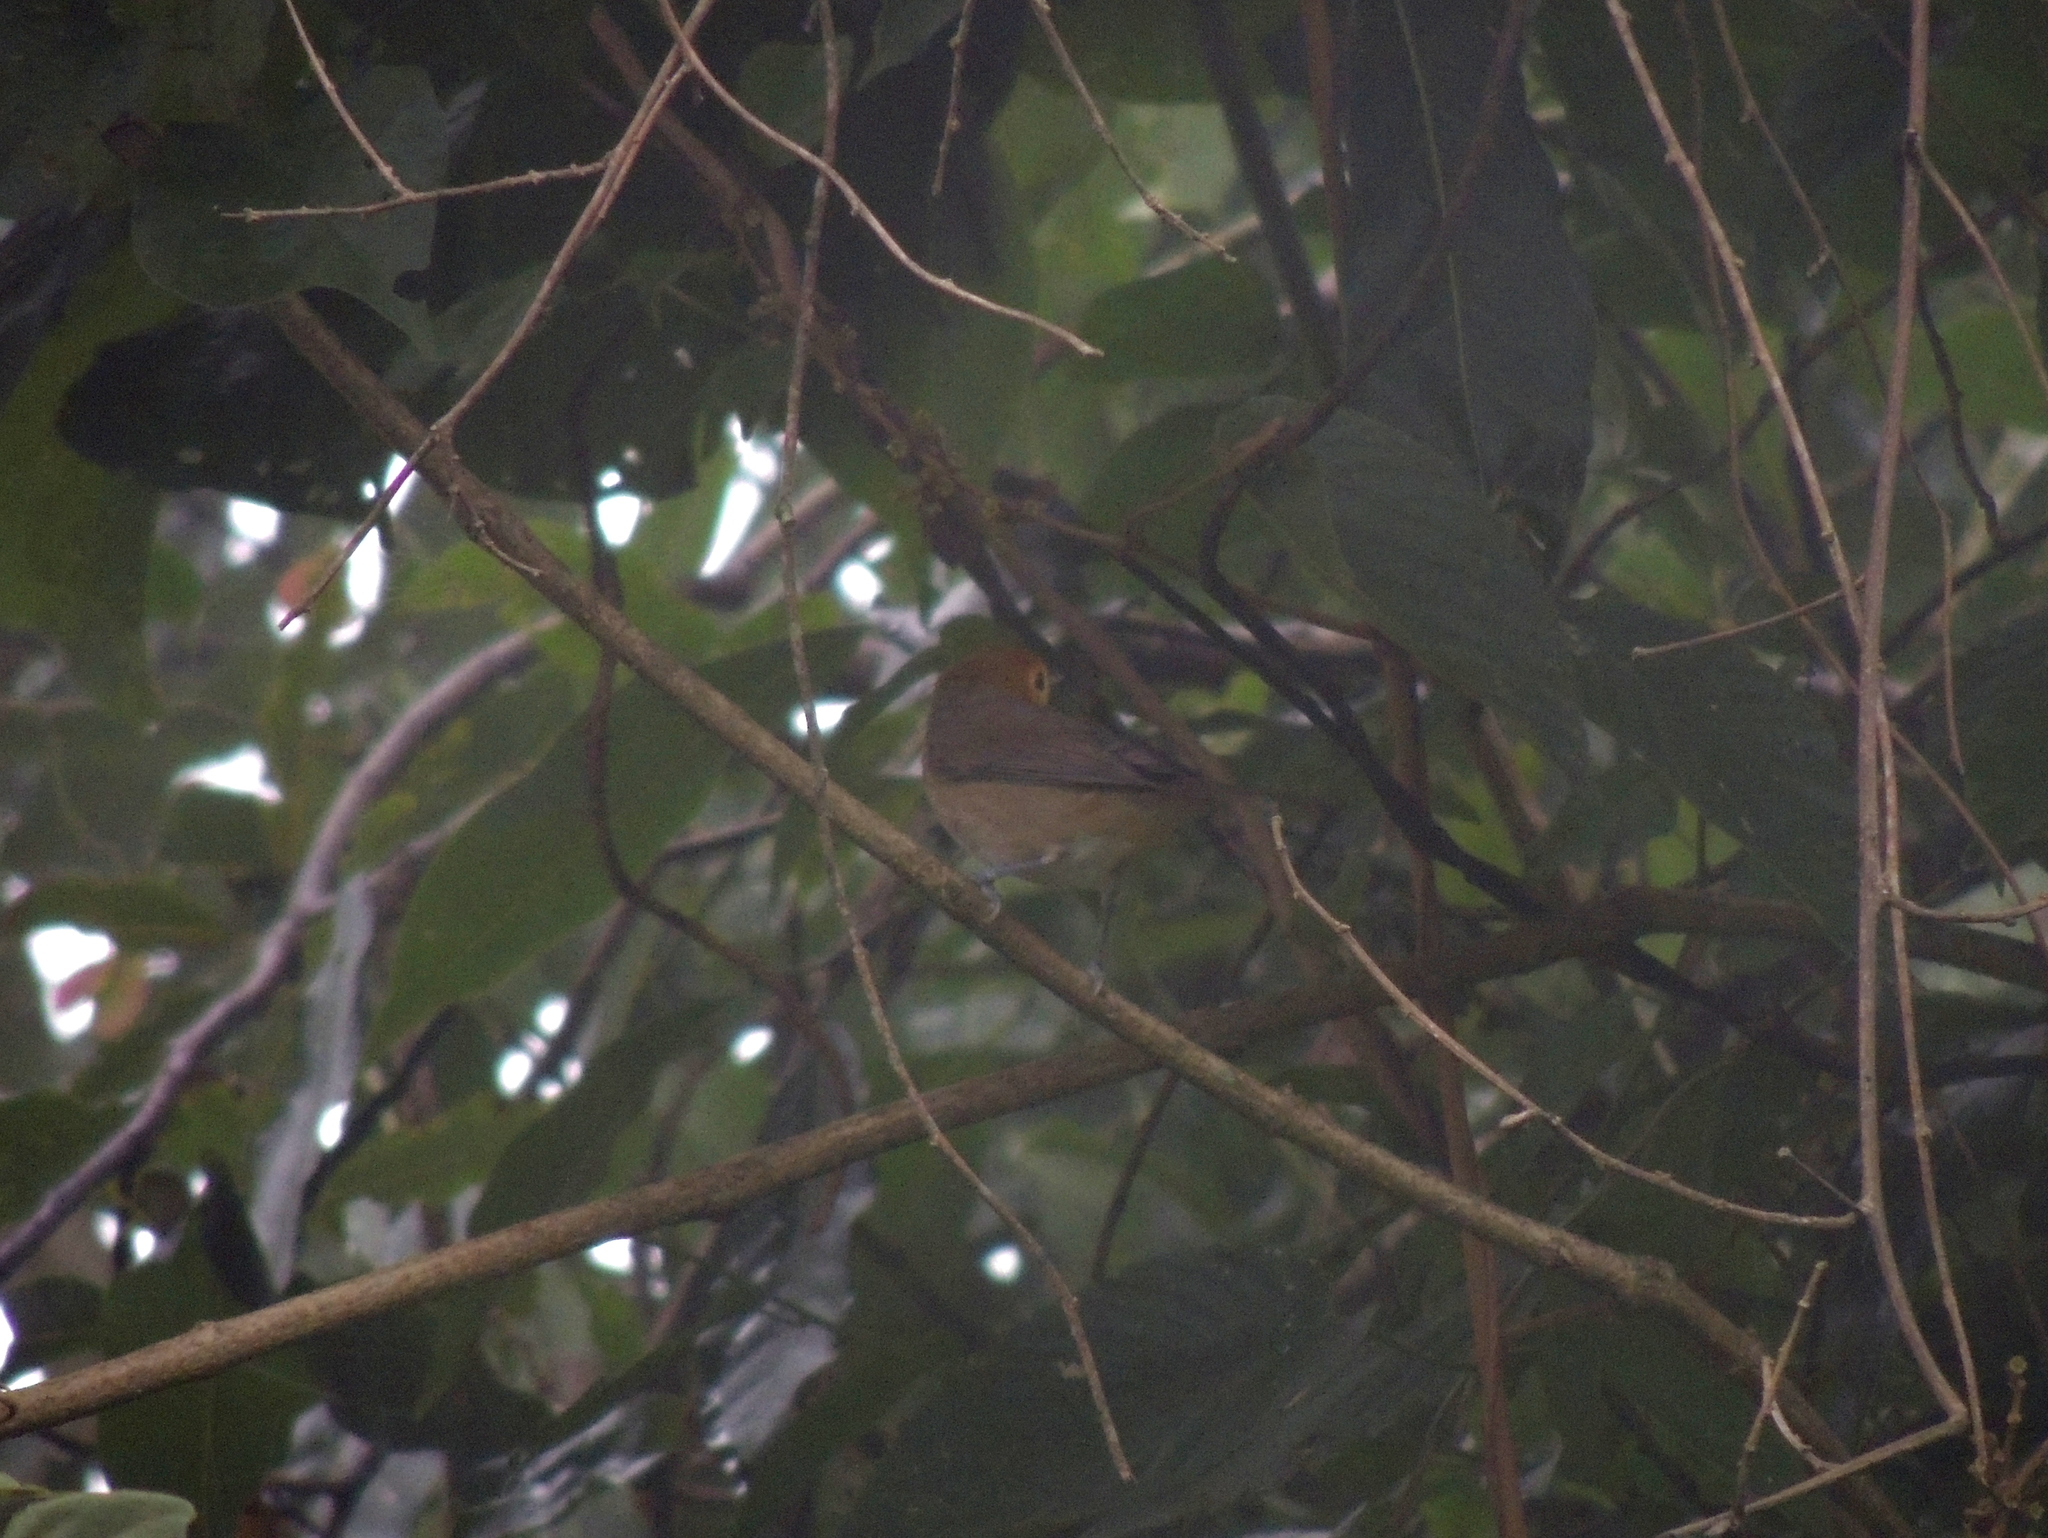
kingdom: Animalia
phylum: Chordata
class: Aves
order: Passeriformes
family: Passerellidae
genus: Atlapetes
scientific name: Atlapetes fulviceps
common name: Fulvous-headed brushfinch
